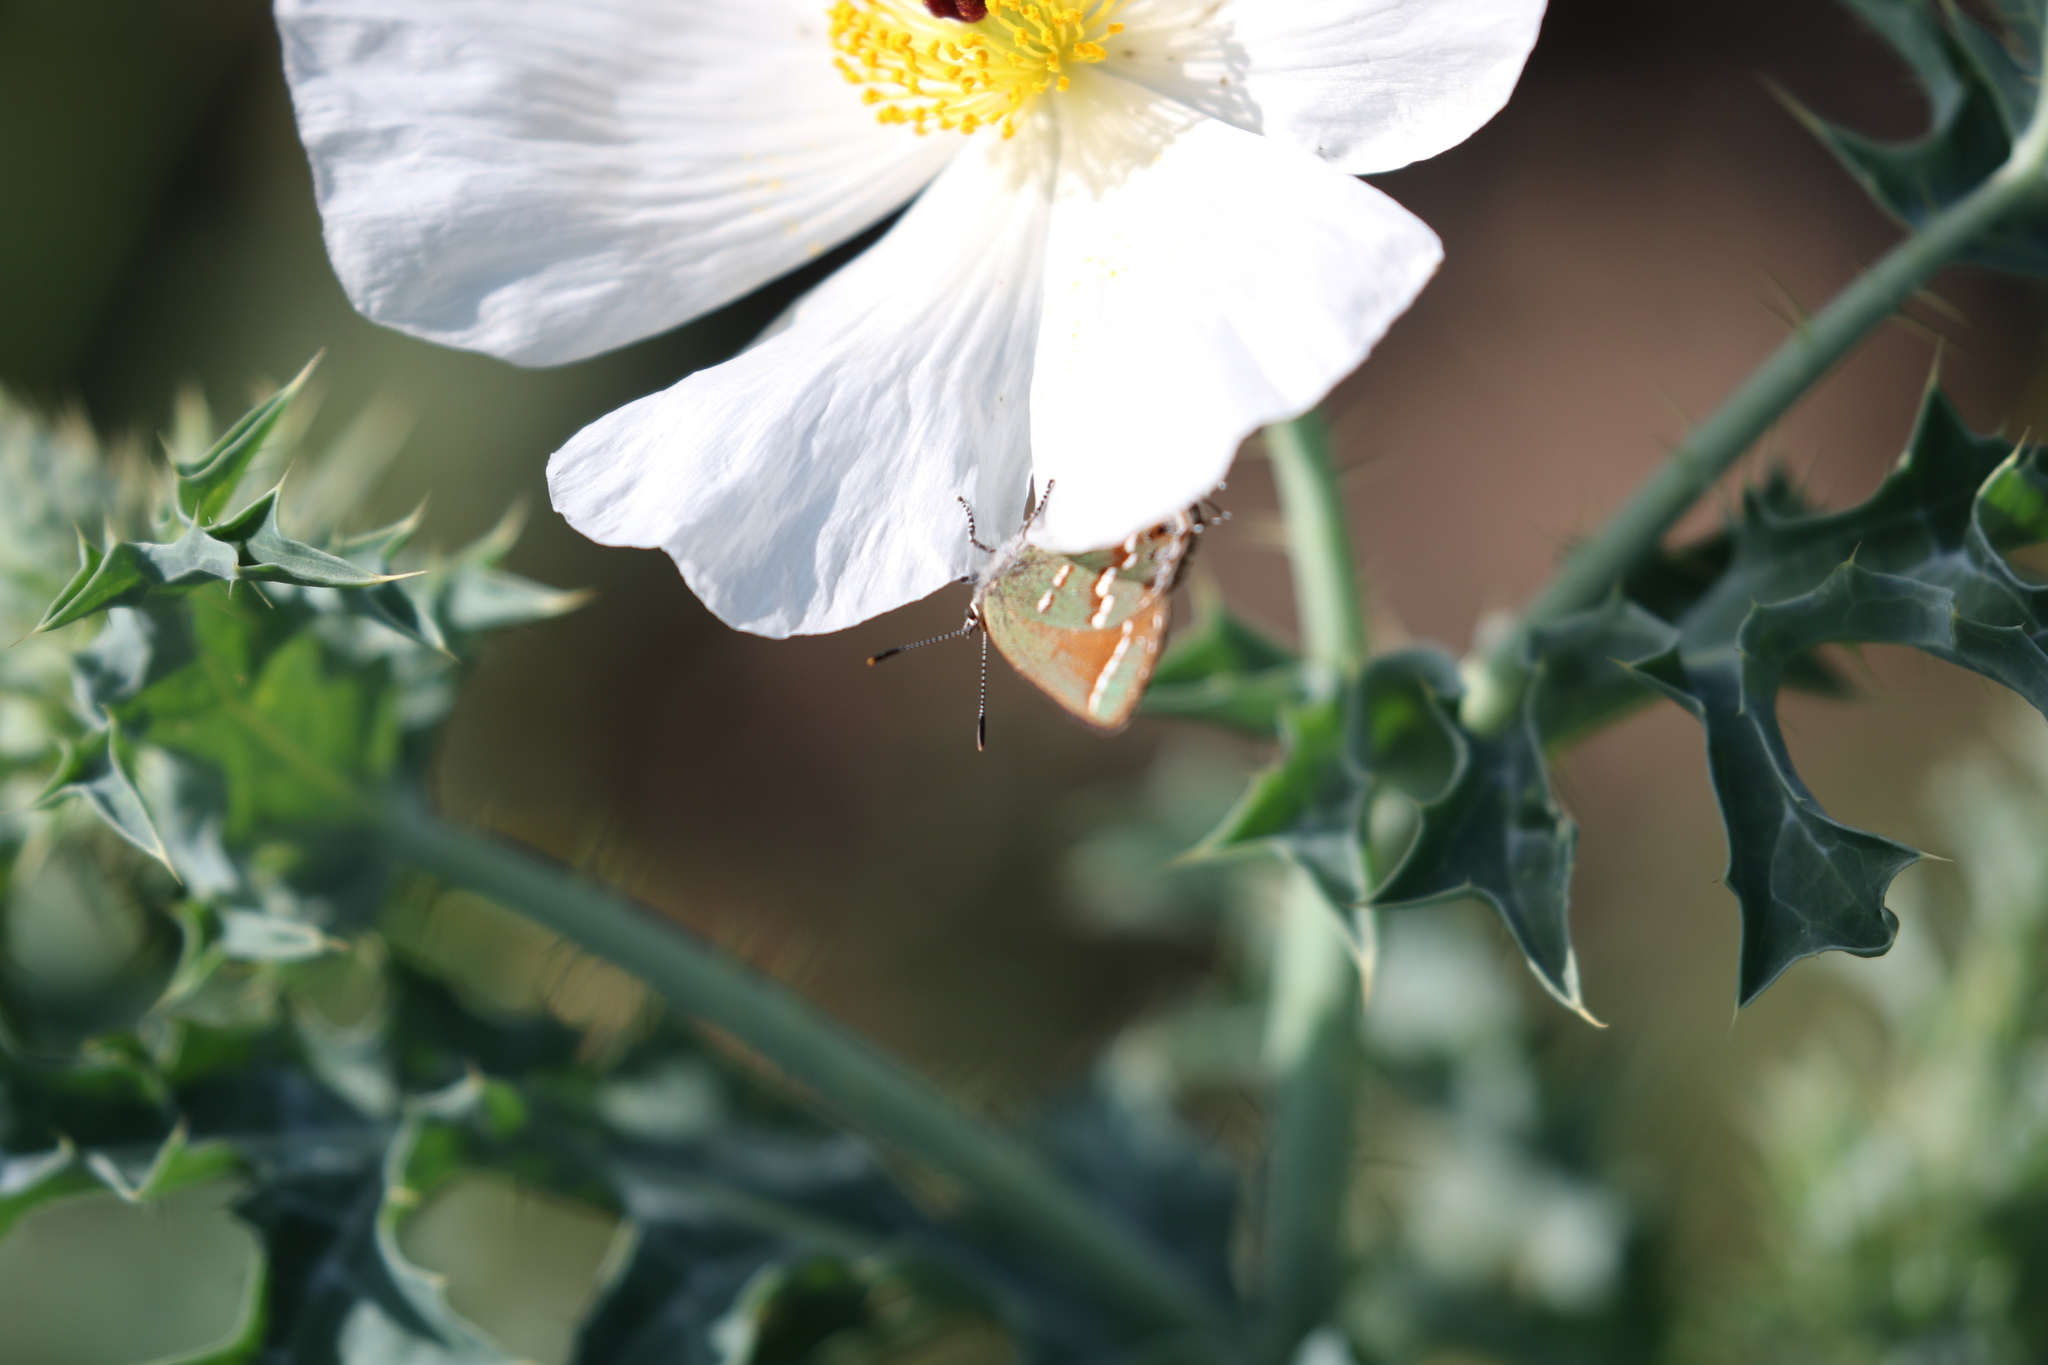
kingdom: Animalia
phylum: Arthropoda
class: Insecta
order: Lepidoptera
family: Lycaenidae
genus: Mitoura
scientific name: Mitoura gryneus
